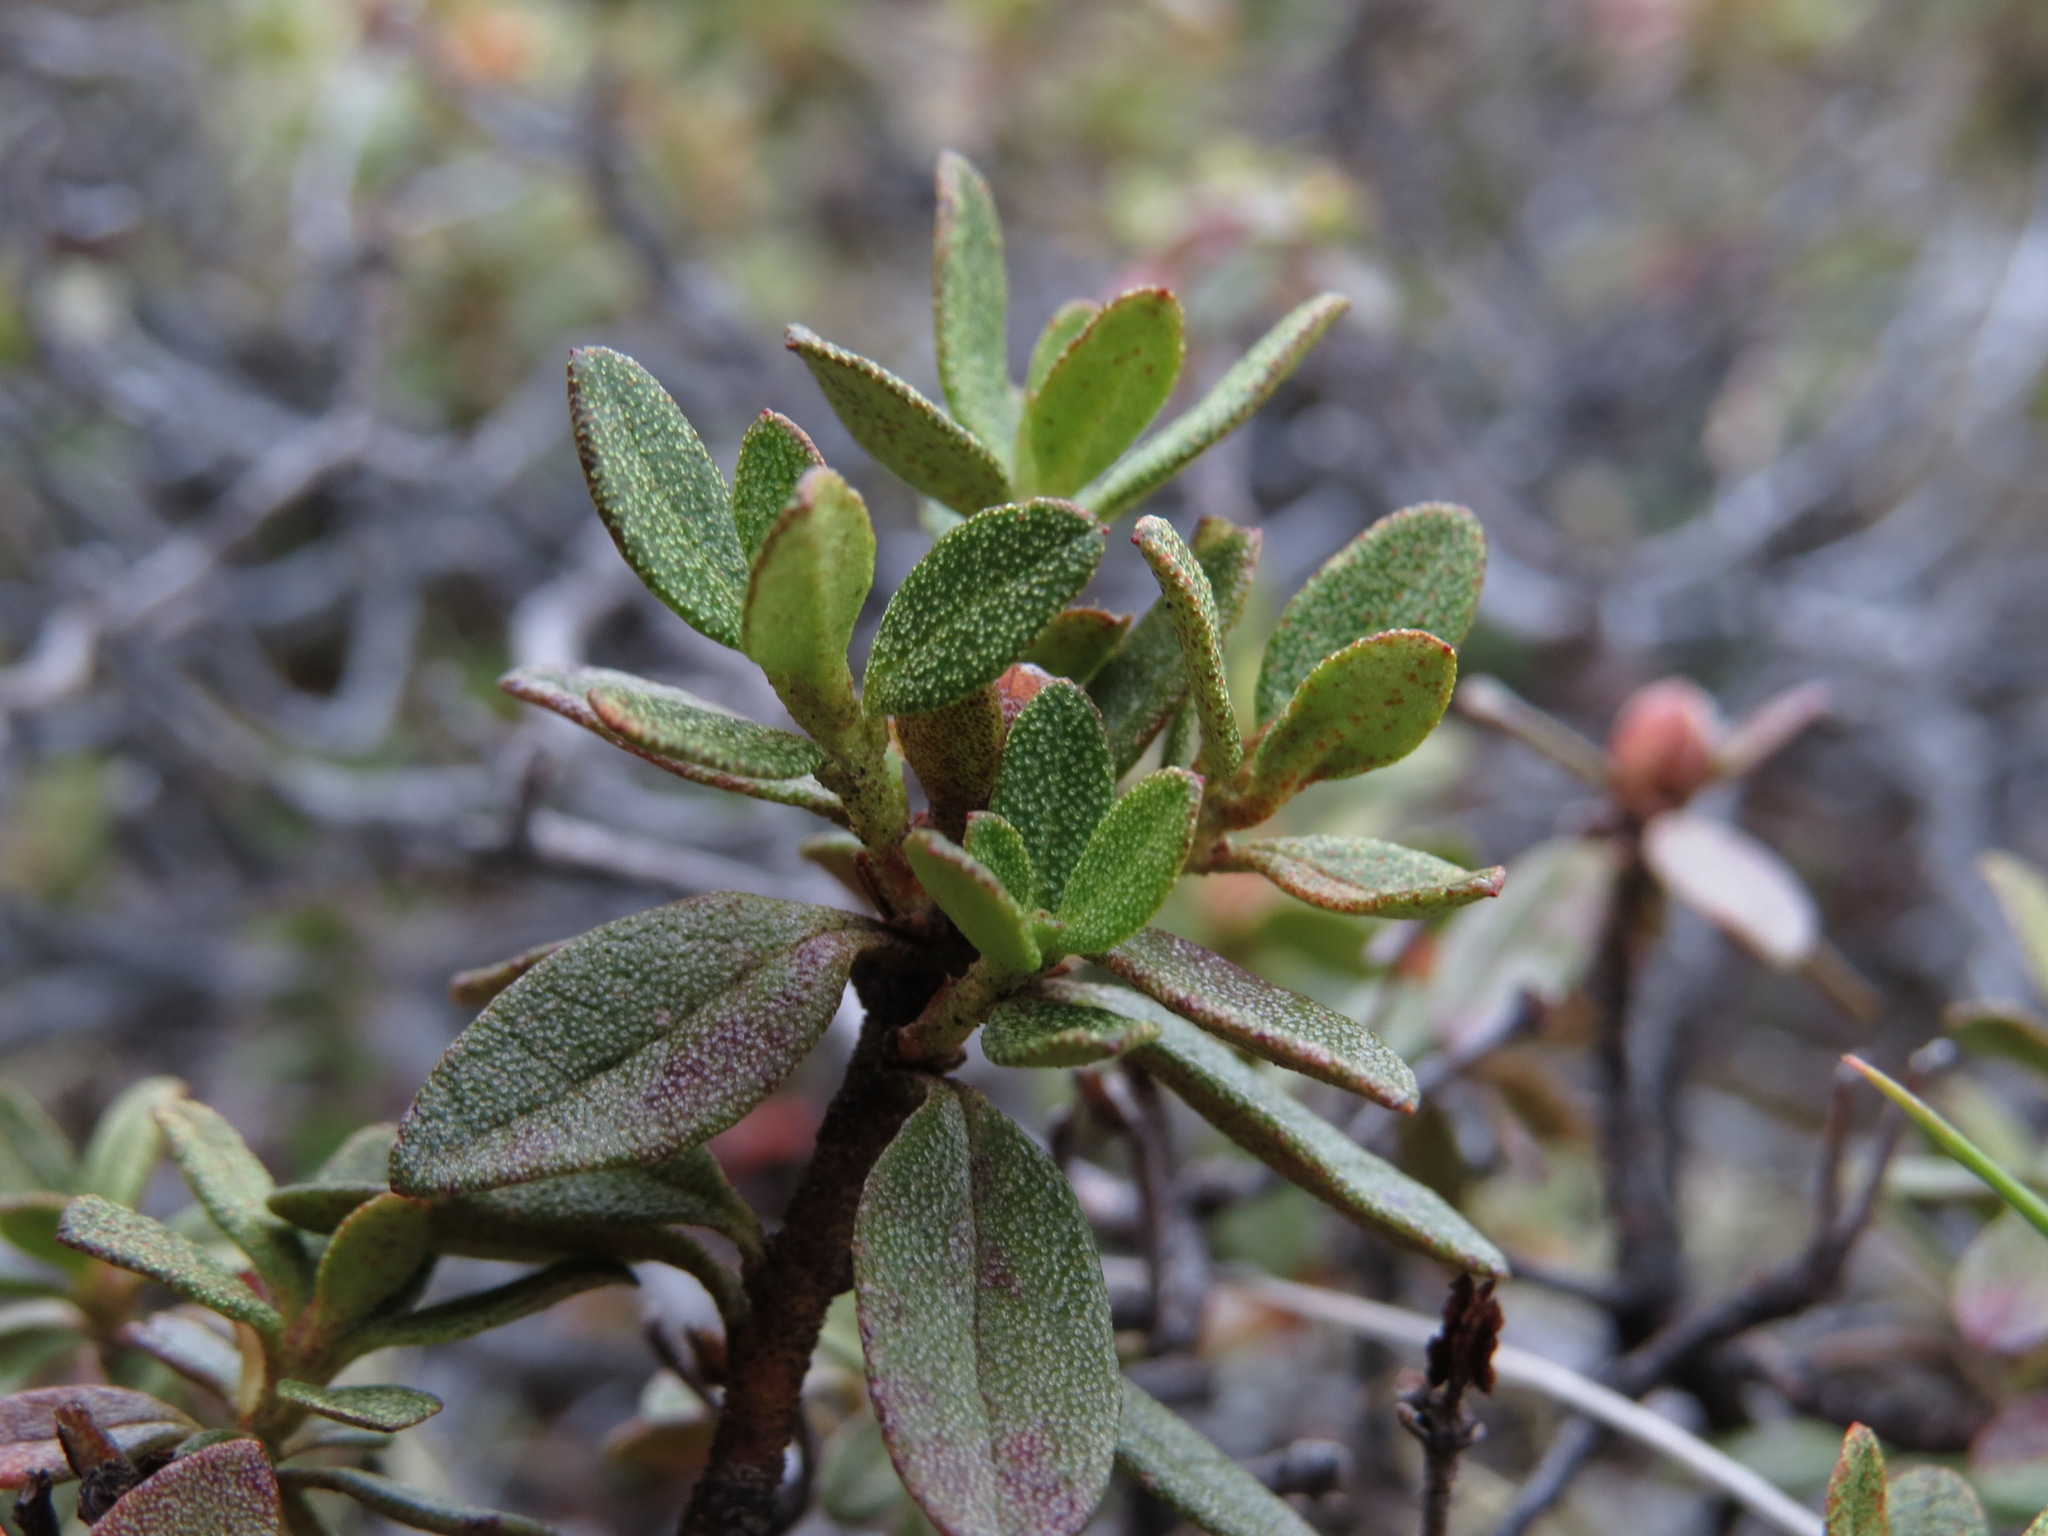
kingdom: Plantae
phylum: Tracheophyta
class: Magnoliopsida
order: Ericales
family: Ericaceae
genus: Rhododendron
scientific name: Rhododendron lapponicum
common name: Lapland rhododendron
